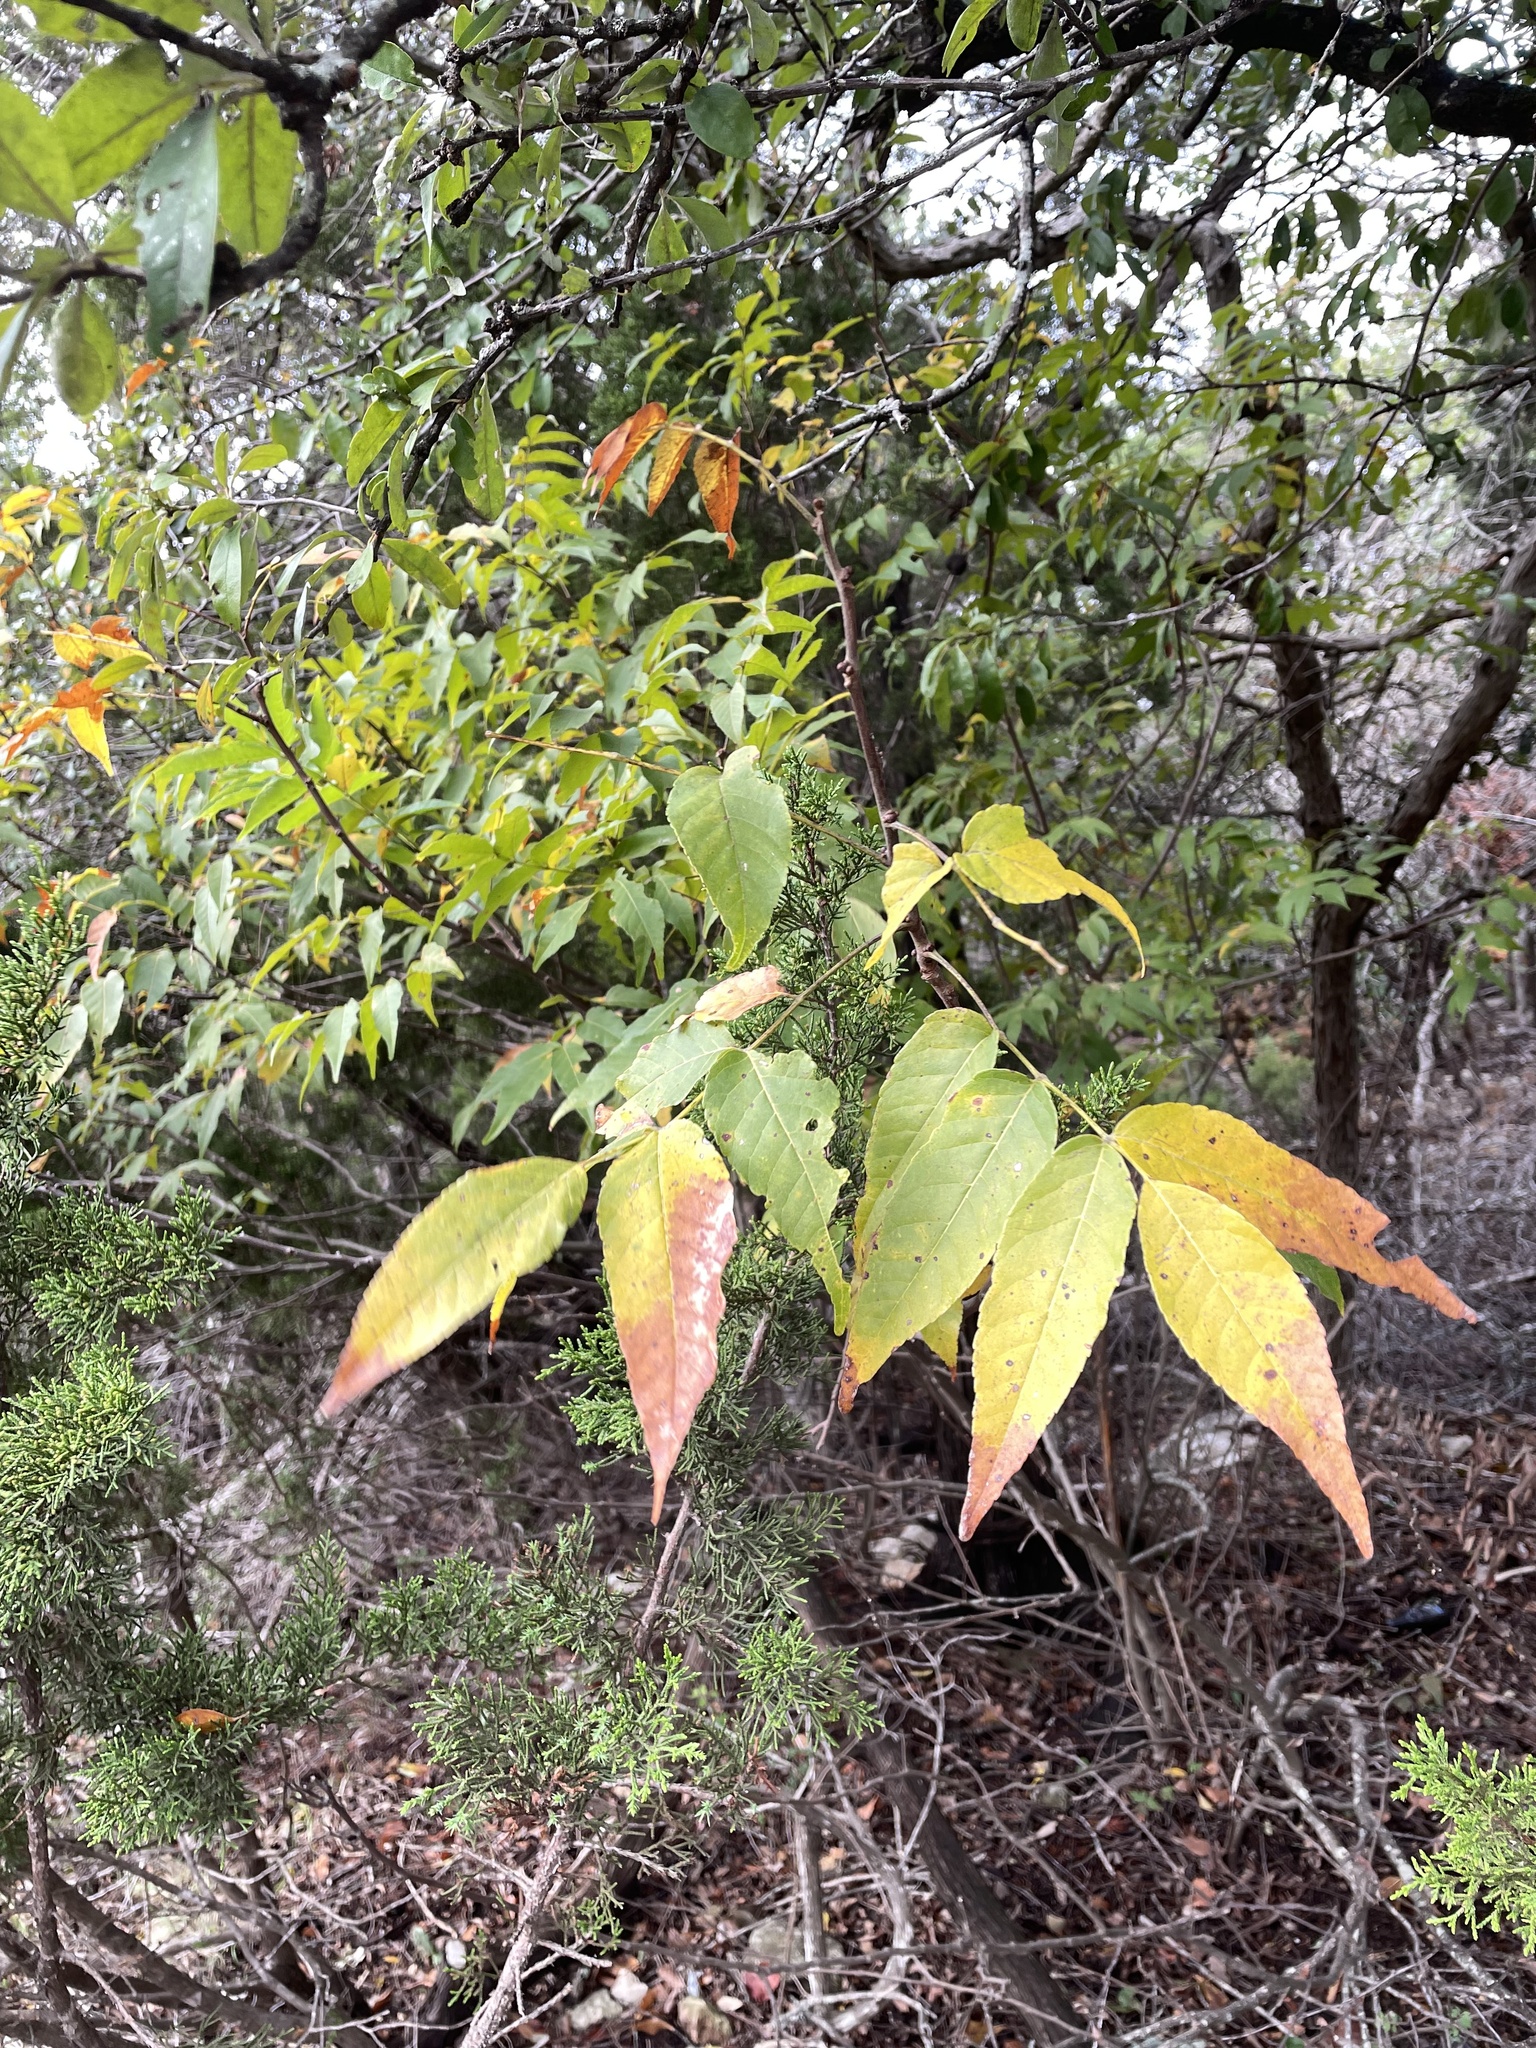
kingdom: Plantae
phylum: Tracheophyta
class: Magnoliopsida
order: Sapindales
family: Sapindaceae
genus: Ungnadia
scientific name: Ungnadia speciosa
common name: Texas-buckeye
